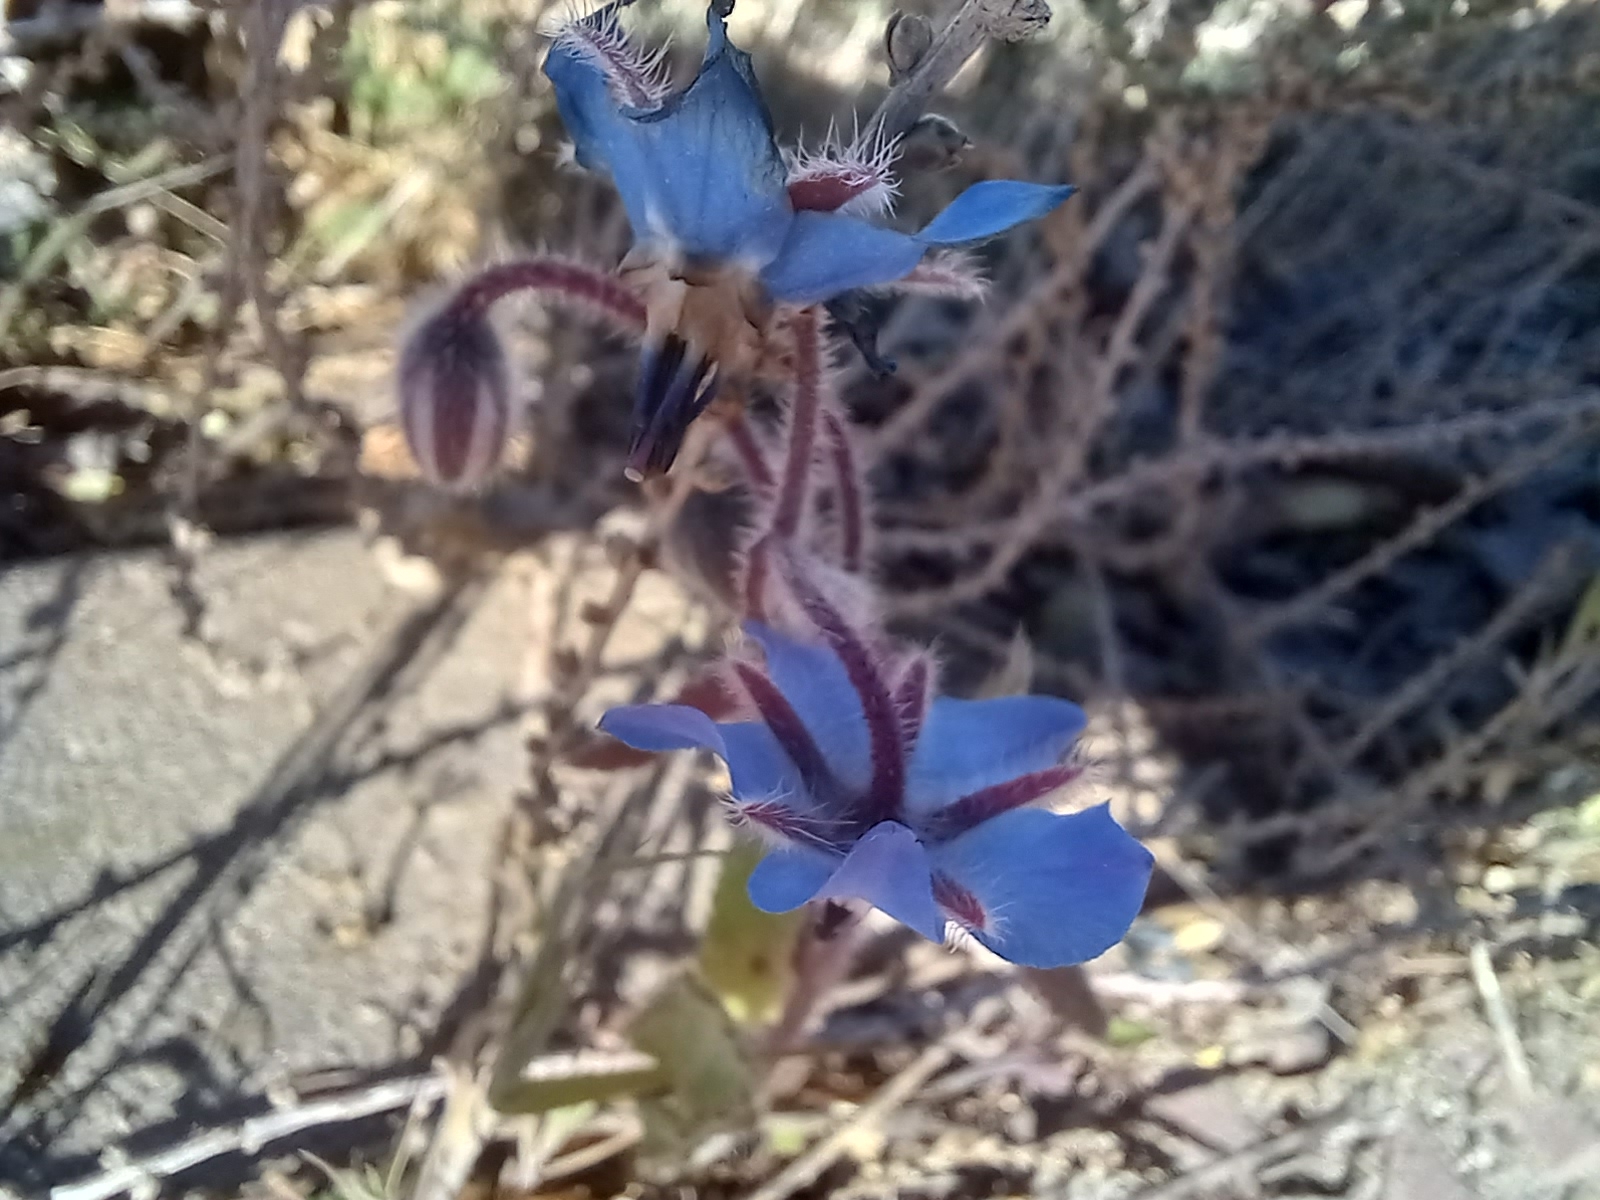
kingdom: Plantae
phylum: Tracheophyta
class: Magnoliopsida
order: Boraginales
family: Boraginaceae
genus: Borago
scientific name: Borago officinalis
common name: Borage
